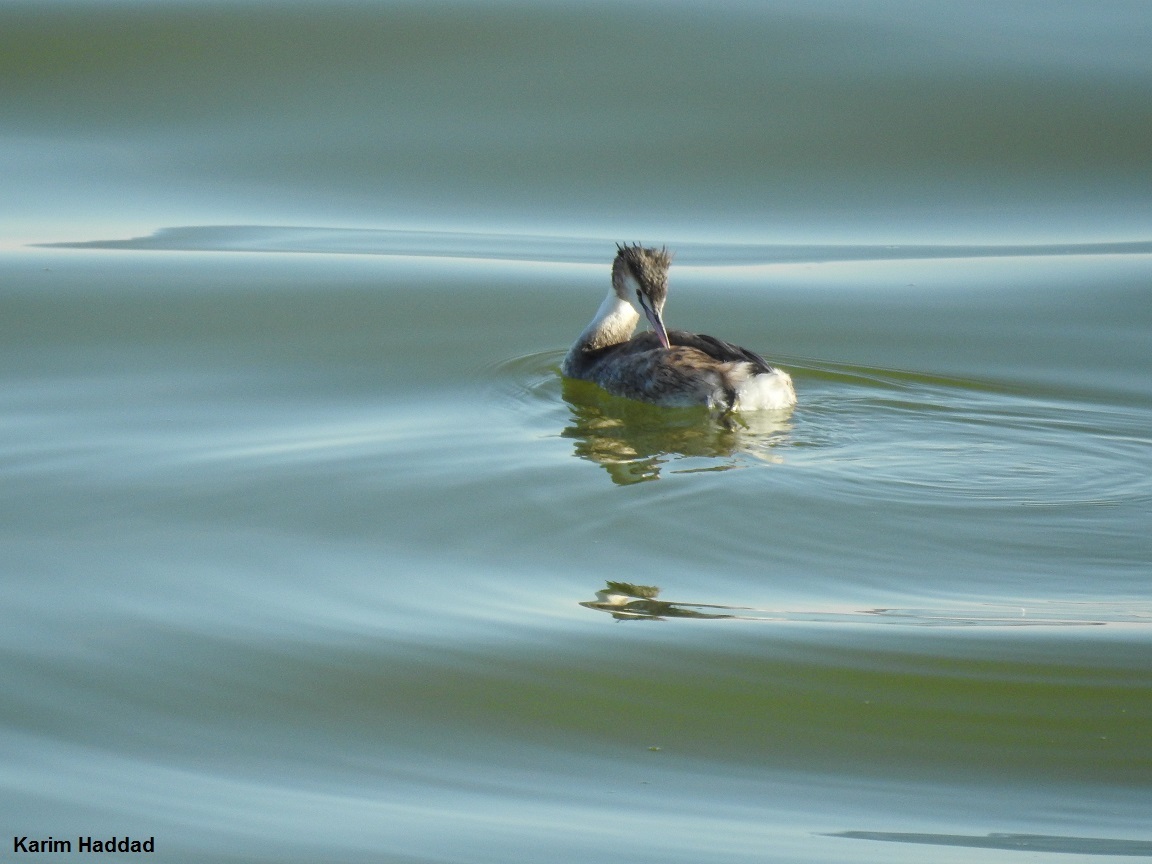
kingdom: Animalia
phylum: Chordata
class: Aves
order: Podicipediformes
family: Podicipedidae
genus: Podiceps
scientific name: Podiceps cristatus
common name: Great crested grebe
